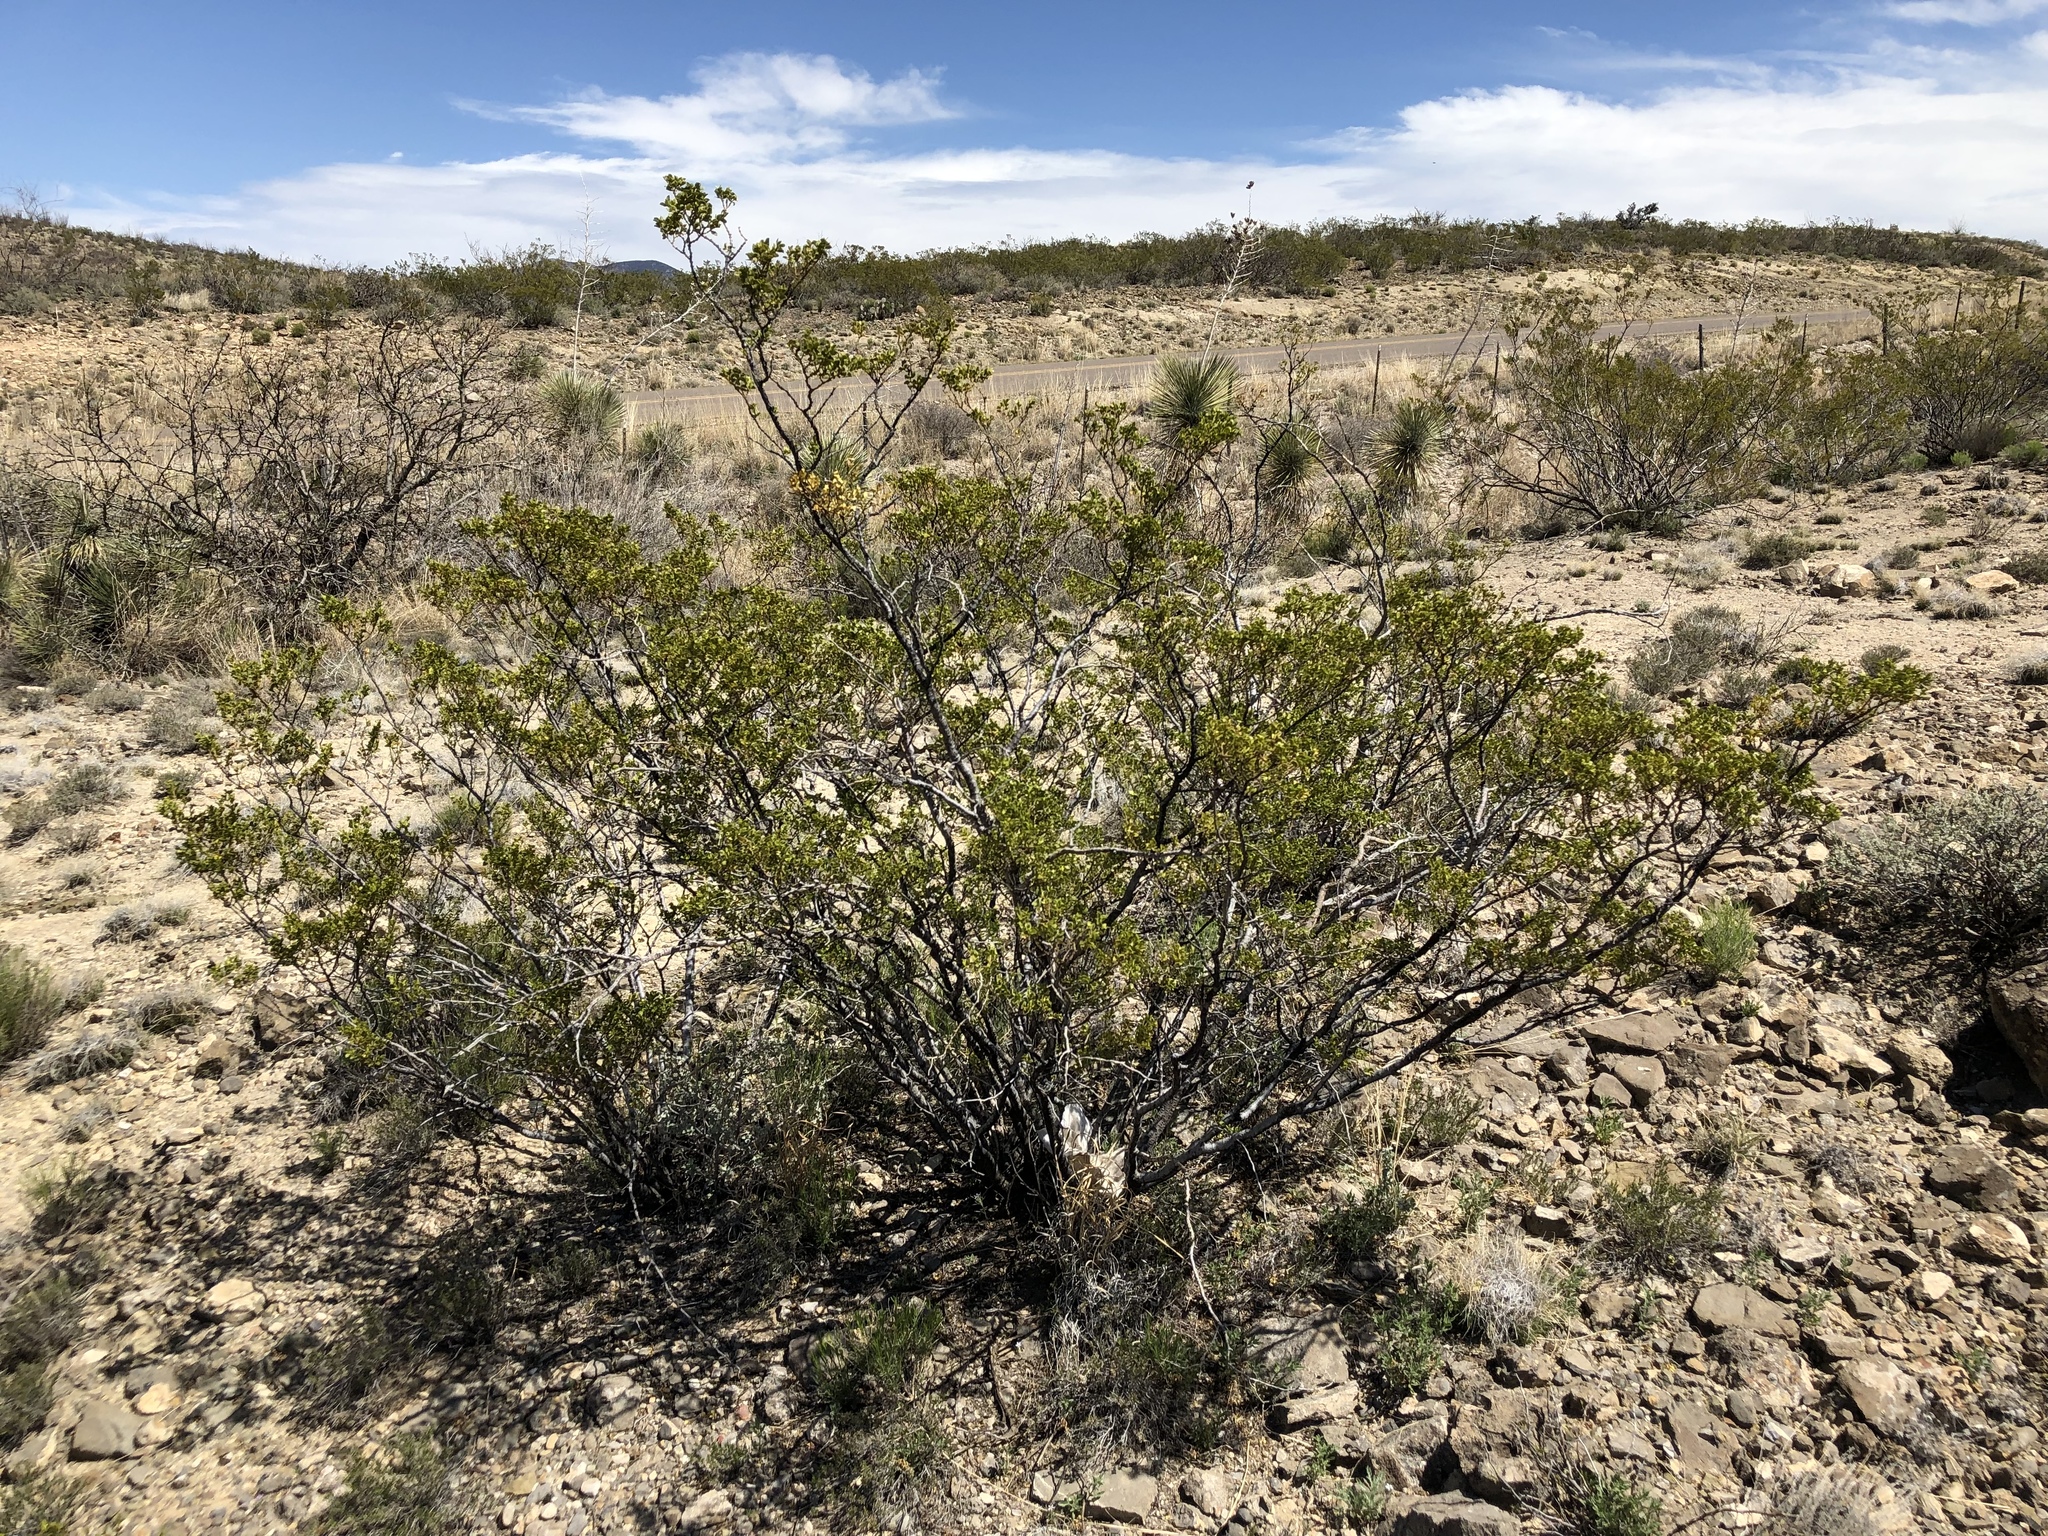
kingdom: Plantae
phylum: Tracheophyta
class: Magnoliopsida
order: Zygophyllales
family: Zygophyllaceae
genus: Larrea
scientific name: Larrea tridentata
